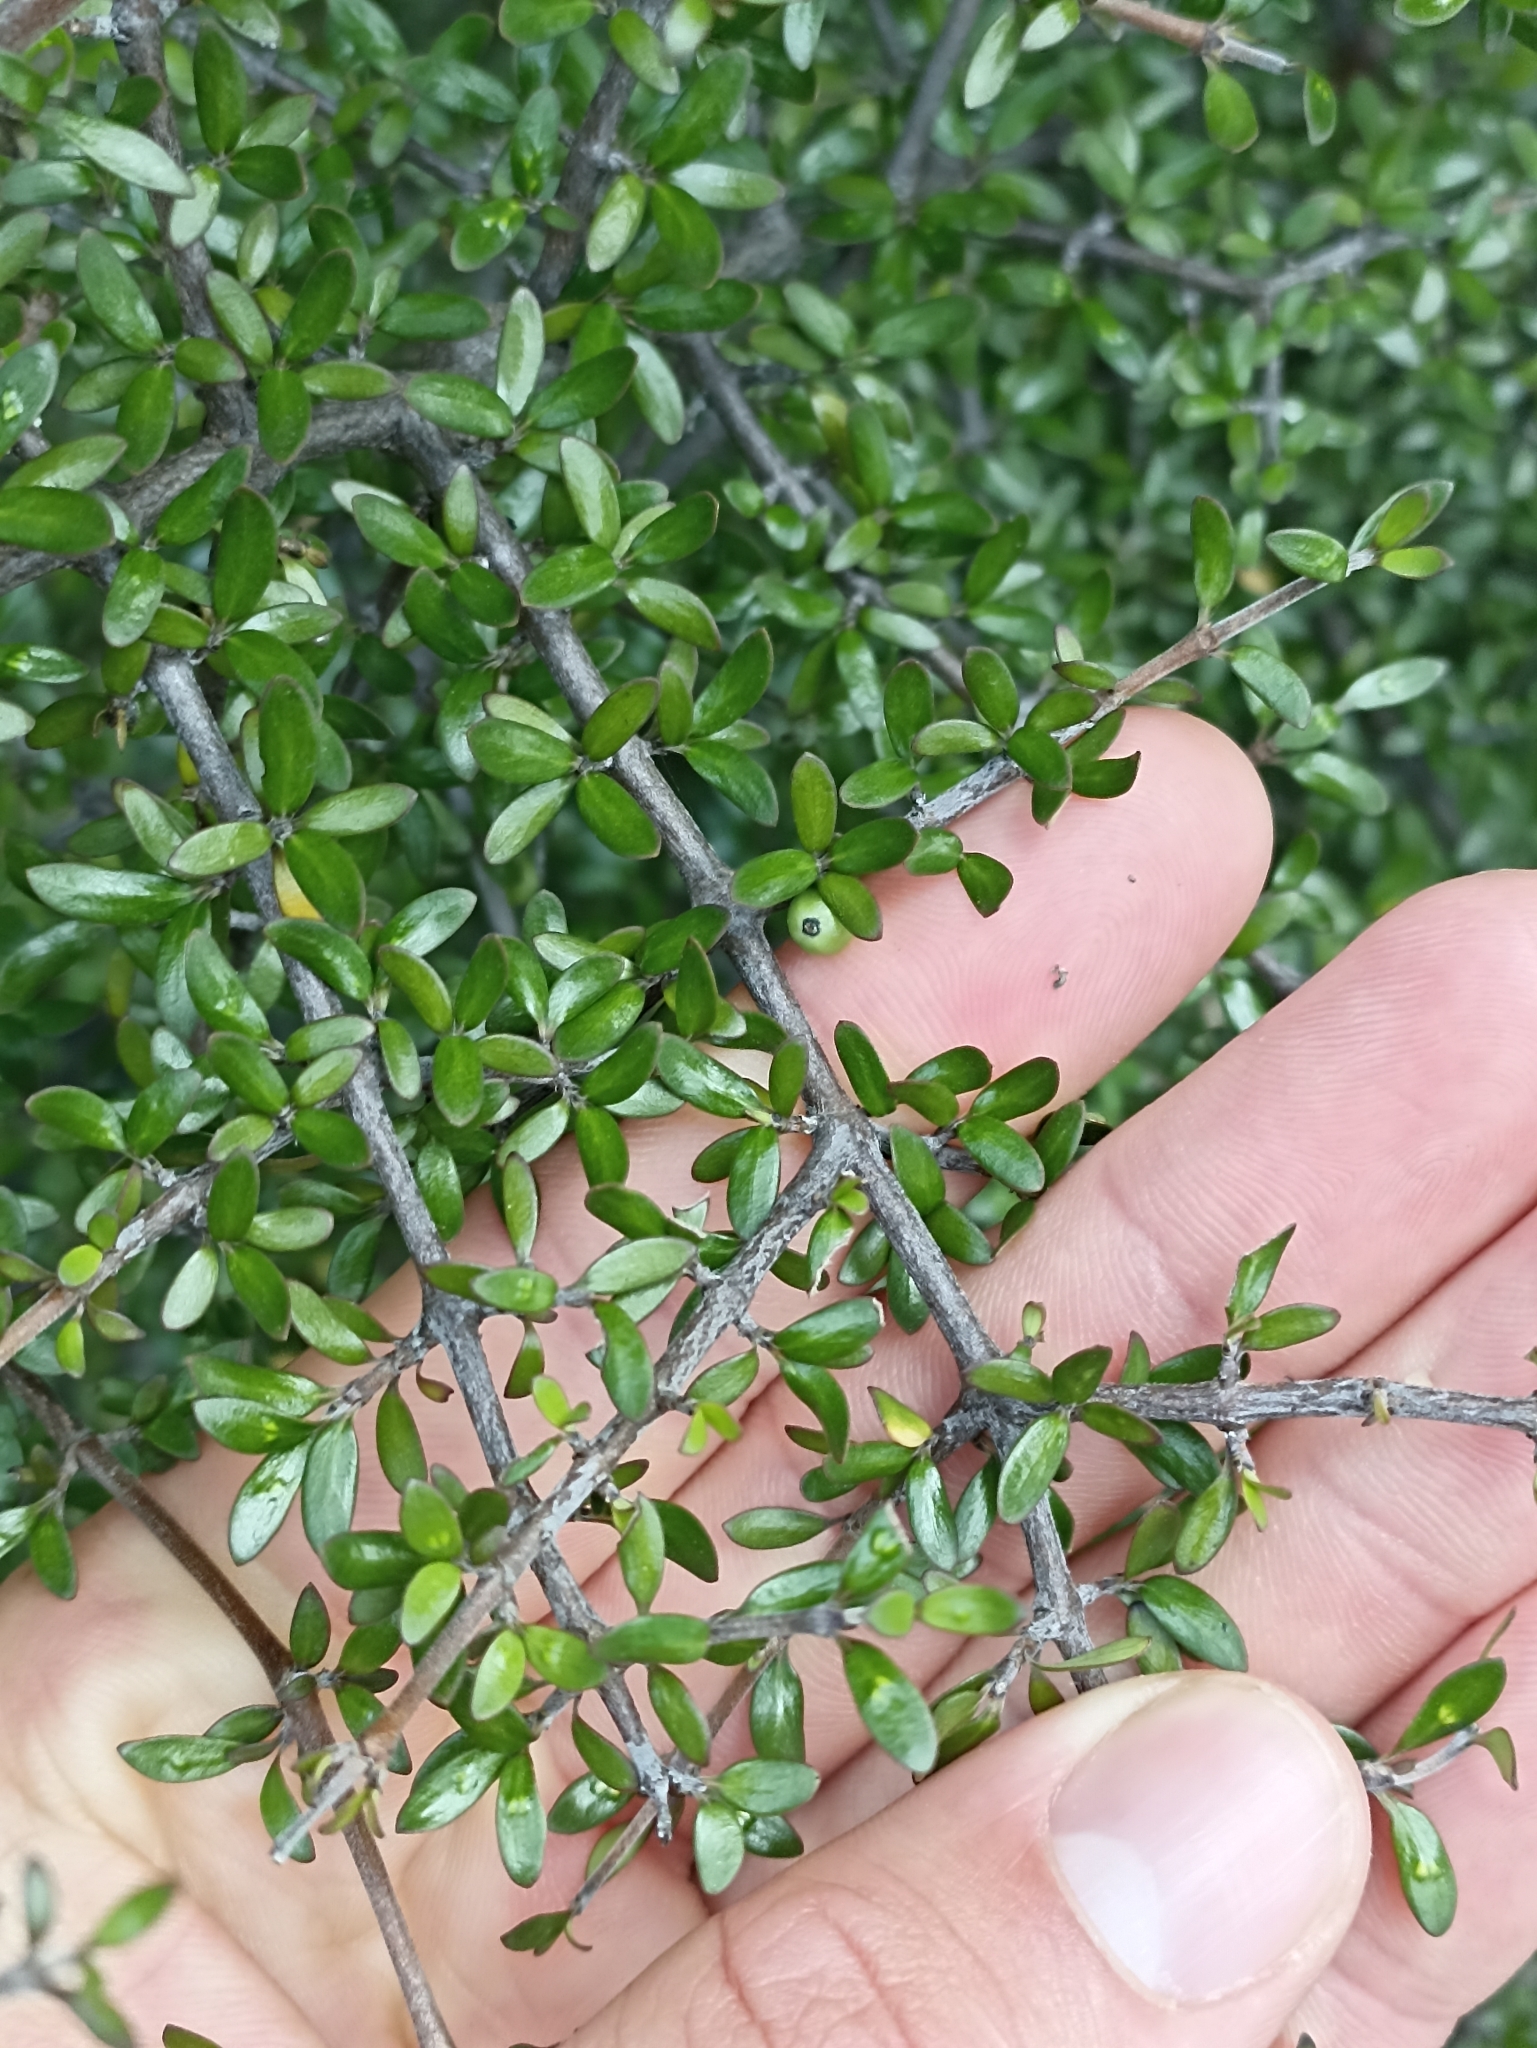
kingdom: Plantae
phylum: Tracheophyta
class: Magnoliopsida
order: Gentianales
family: Rubiaceae
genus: Coprosma
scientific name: Coprosma propinqua
